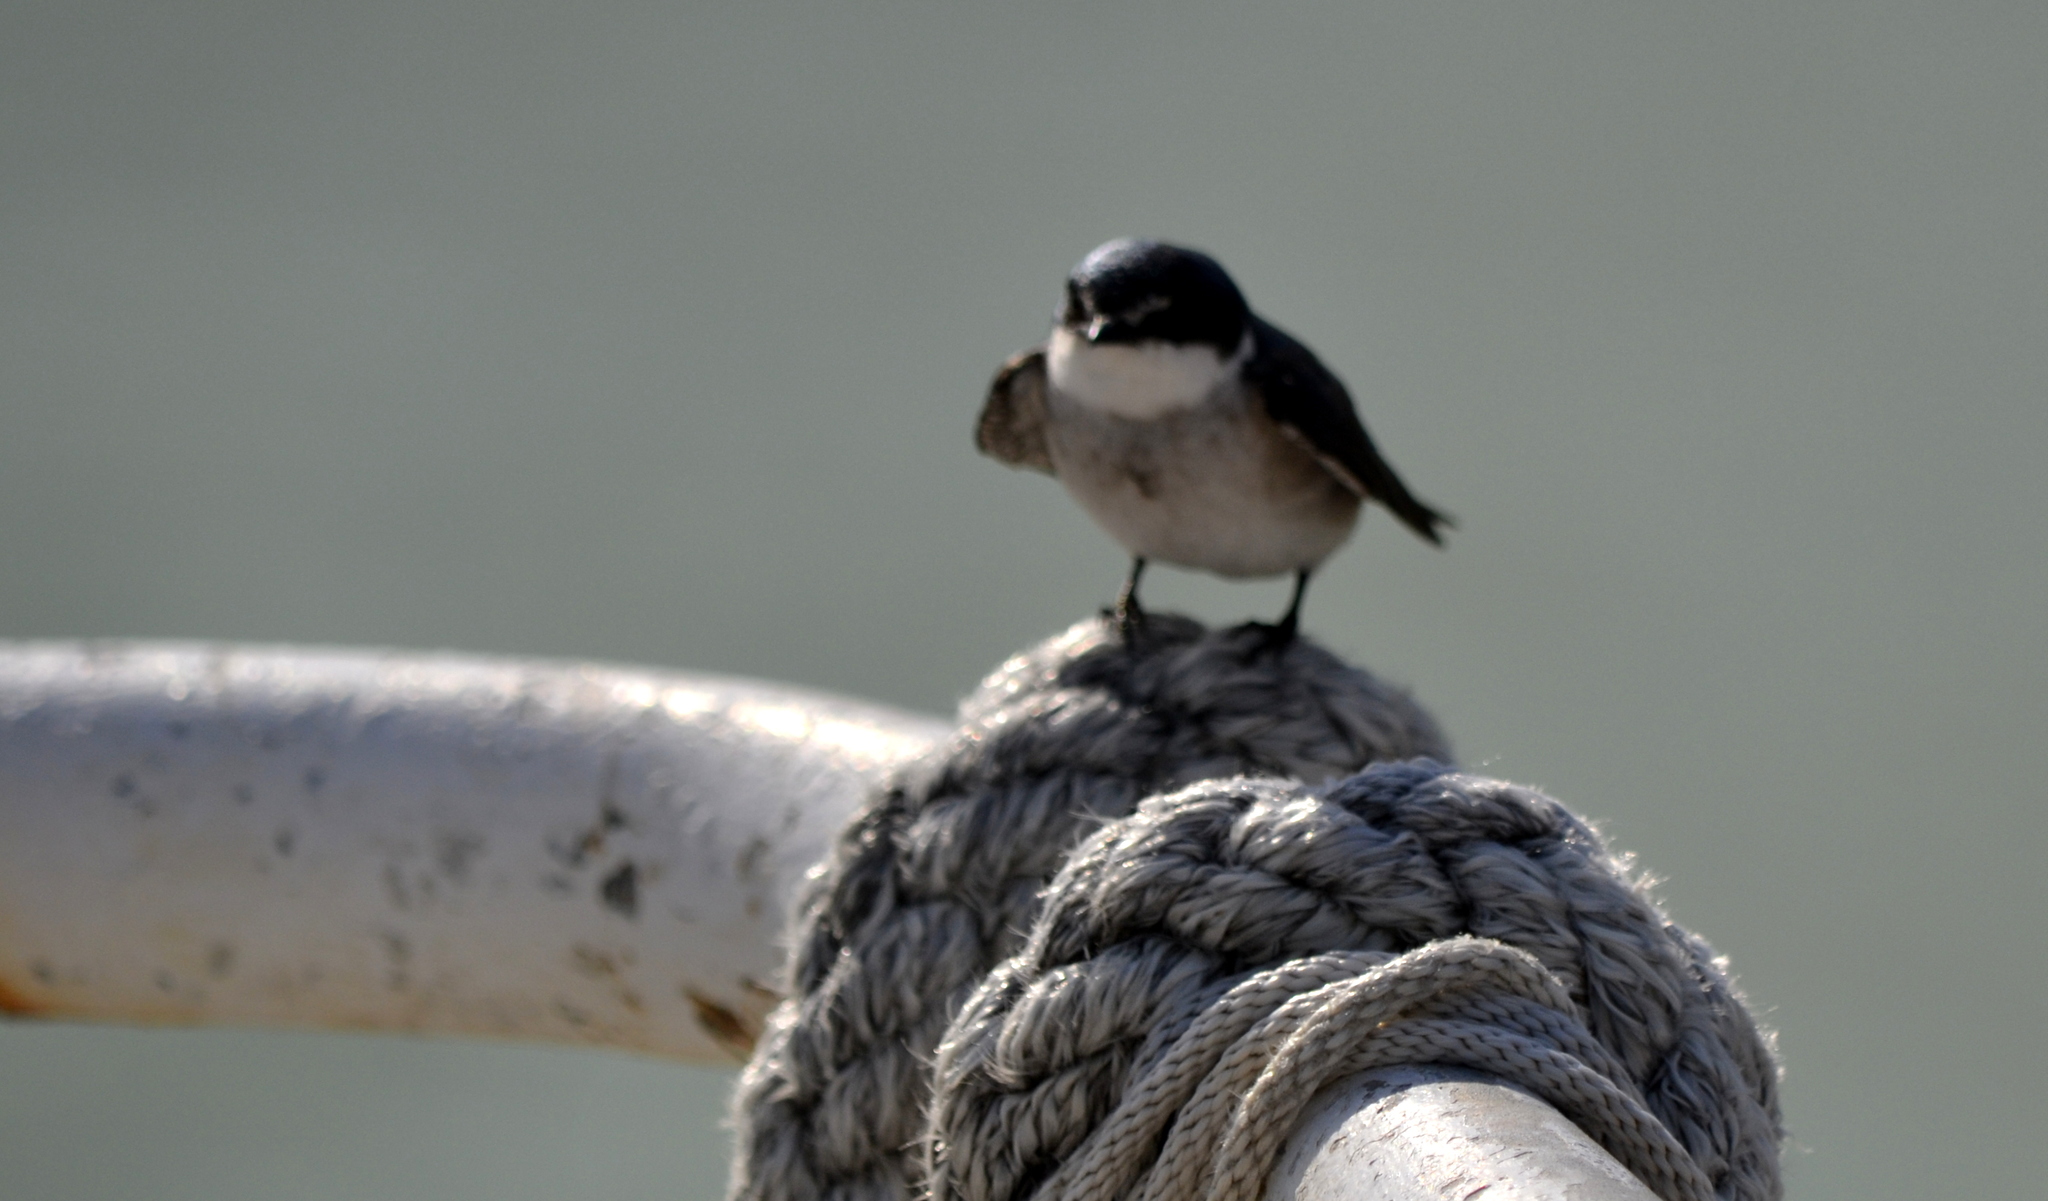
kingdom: Animalia
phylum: Chordata
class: Aves
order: Passeriformes
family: Hirundinidae
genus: Tachycineta
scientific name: Tachycineta albilinea
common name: Mangrove swallow
